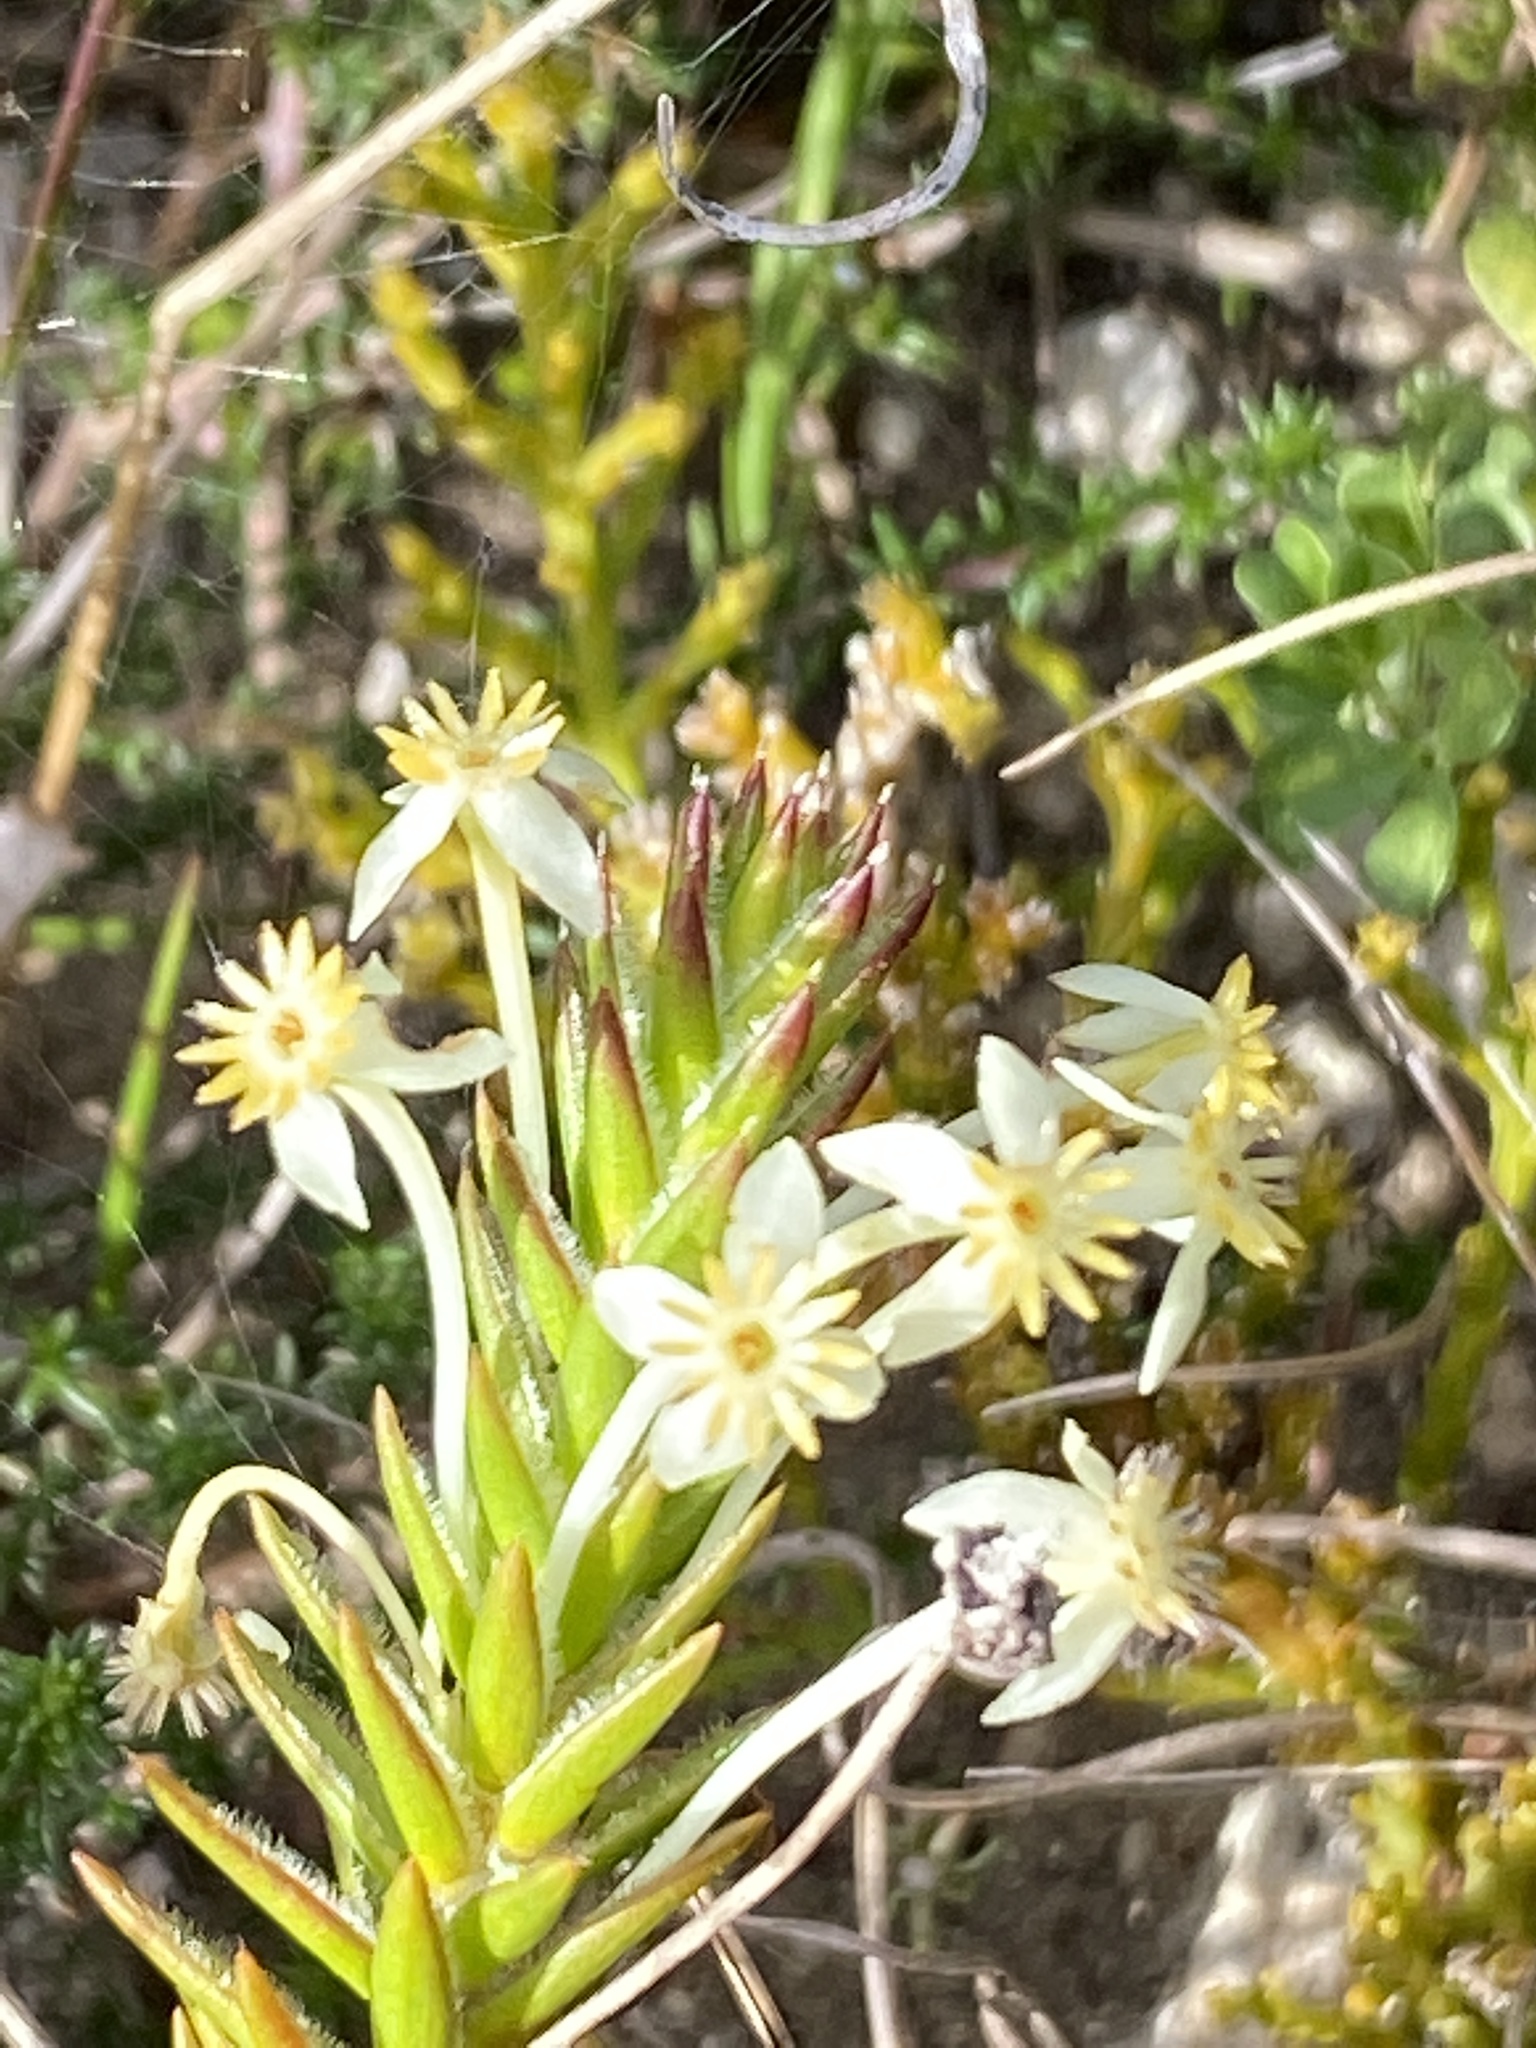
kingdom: Plantae
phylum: Tracheophyta
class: Magnoliopsida
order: Malvales
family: Thymelaeaceae
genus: Struthiola
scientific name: Struthiola rigida
